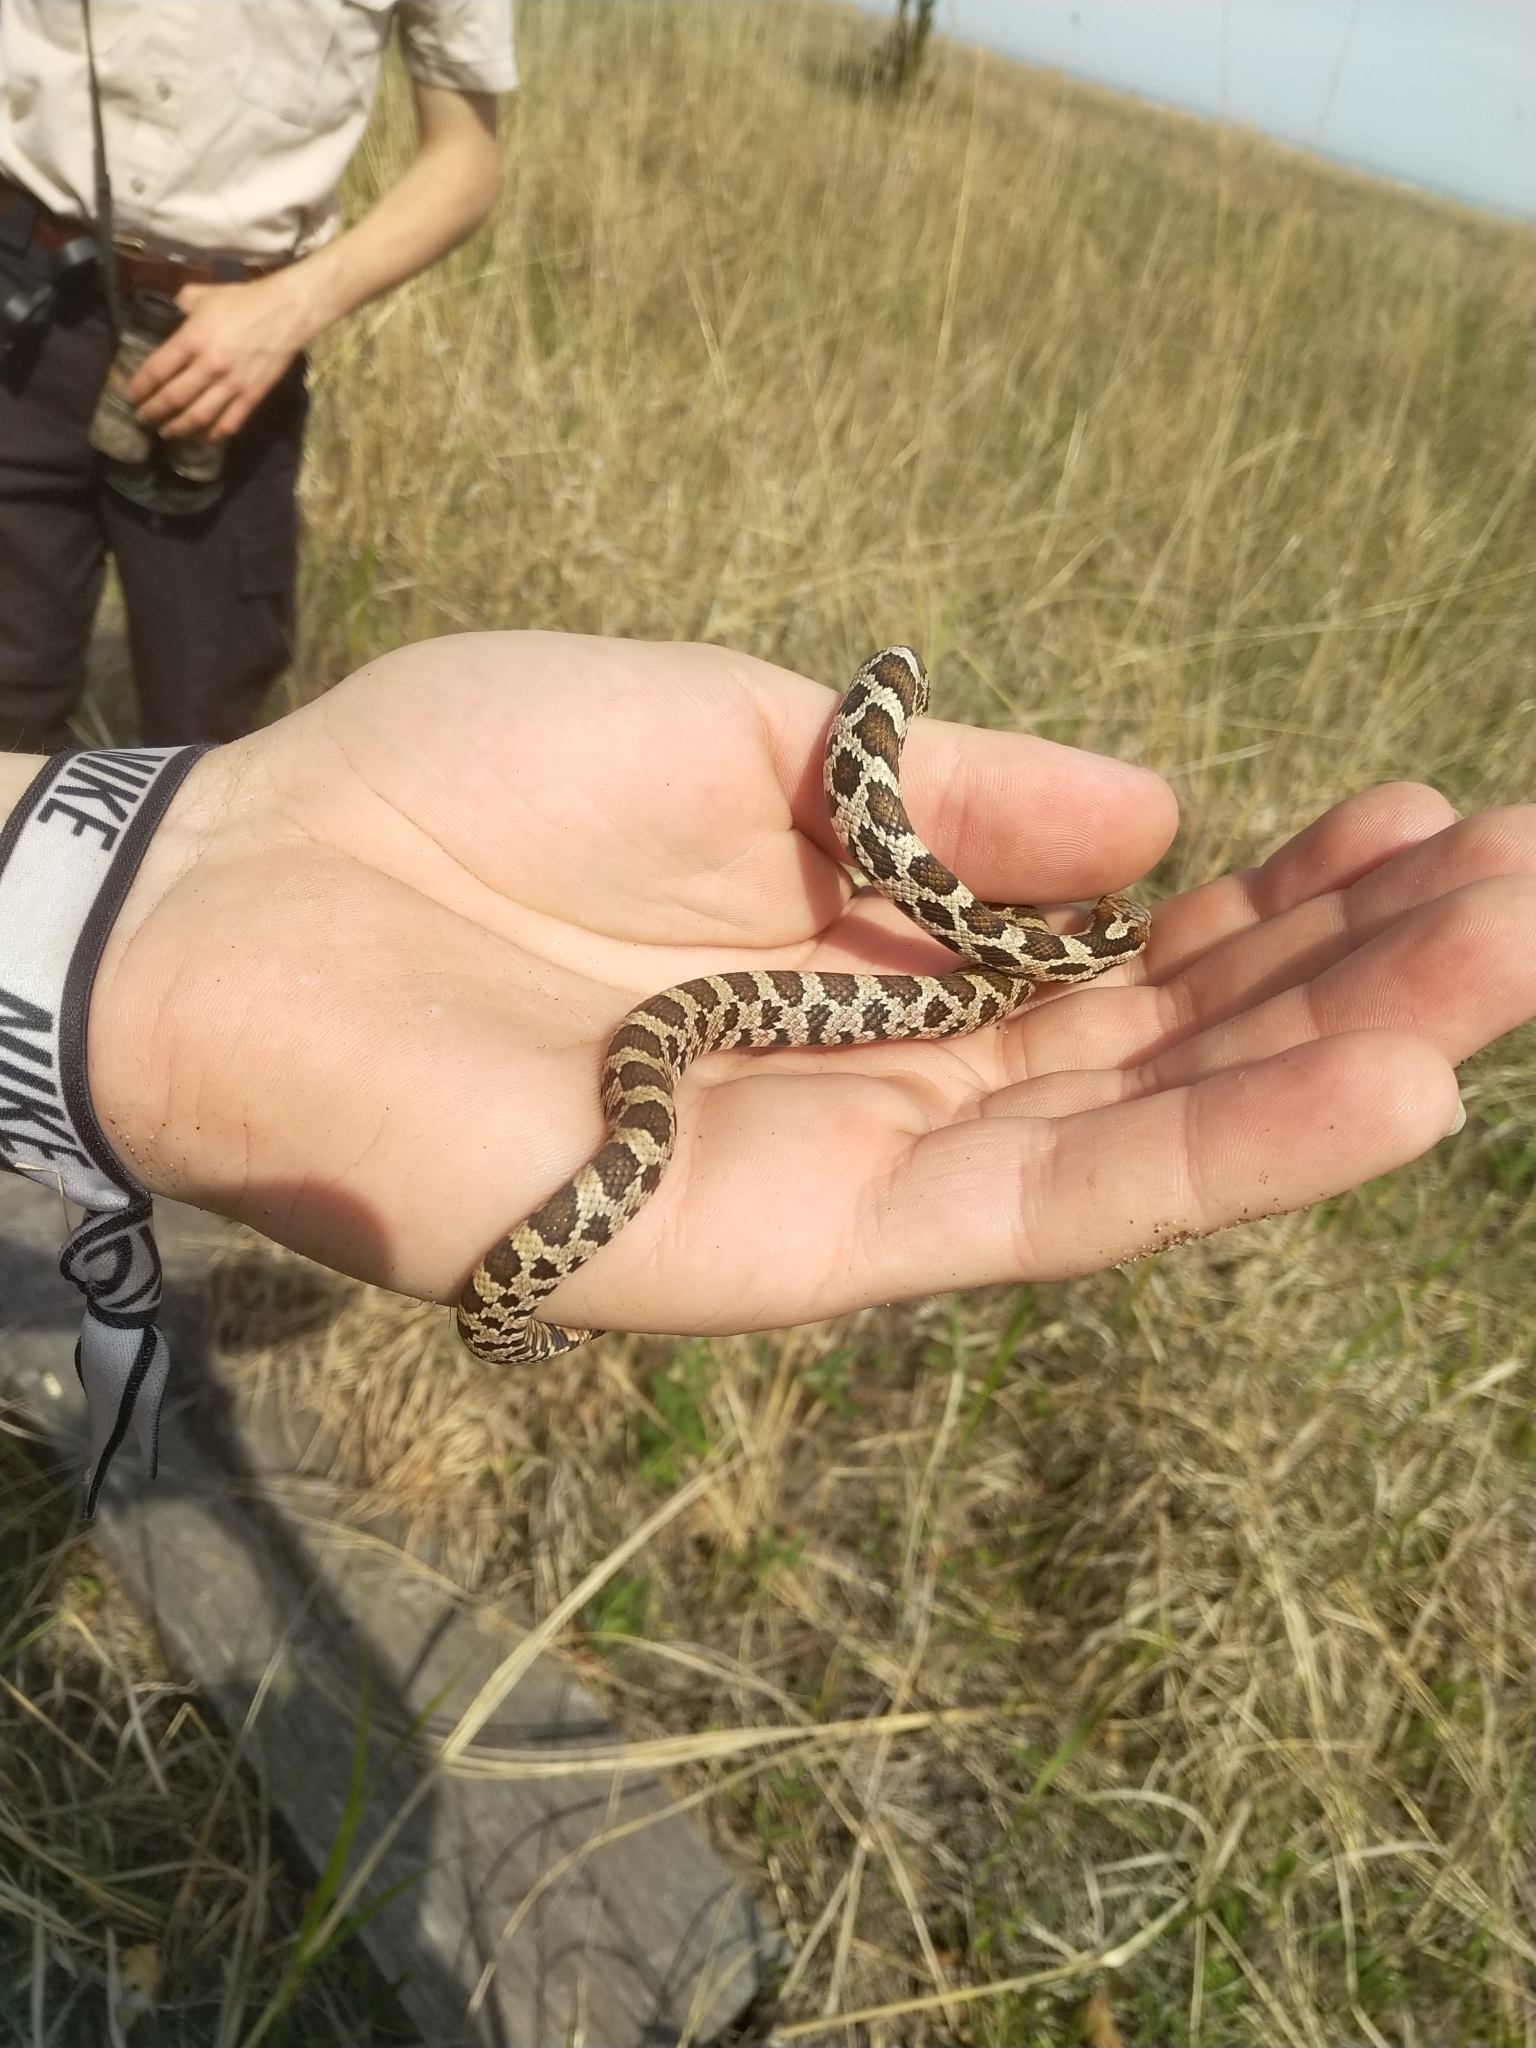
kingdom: Animalia
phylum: Chordata
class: Squamata
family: Colubridae
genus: Pantherophis
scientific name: Pantherophis vulpinus
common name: Eastern fox snake
